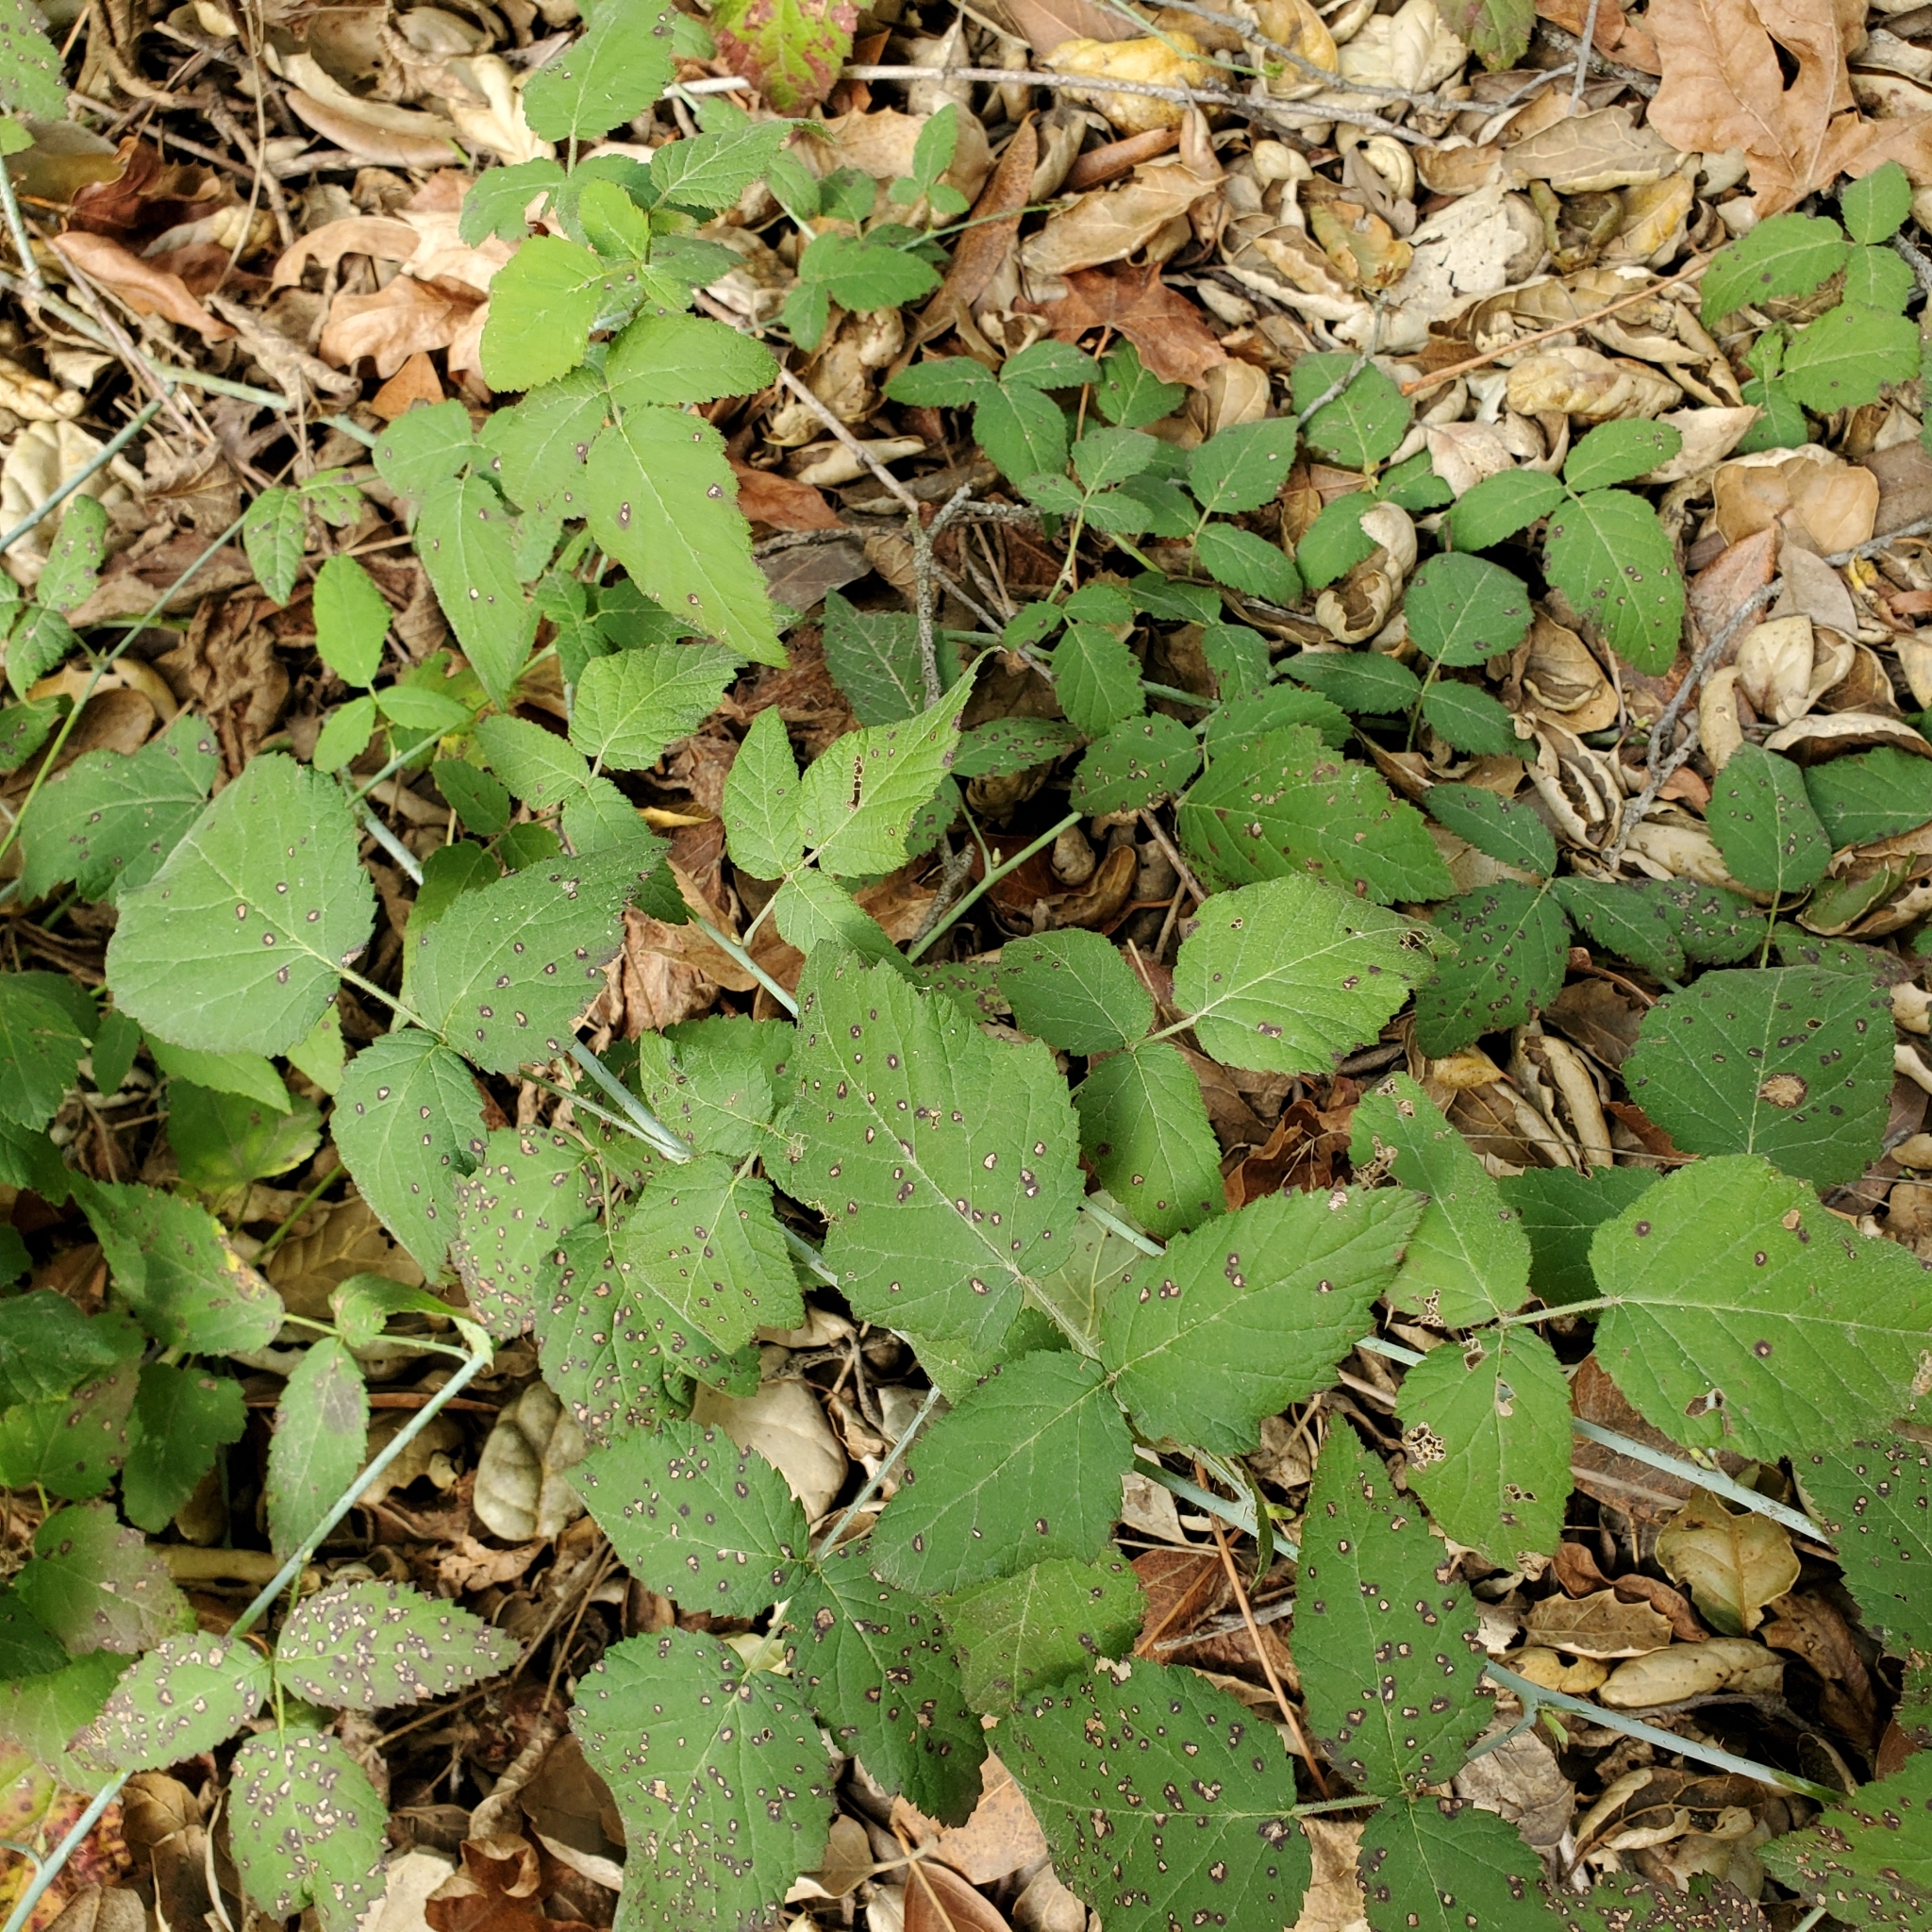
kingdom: Plantae
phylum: Tracheophyta
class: Magnoliopsida
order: Rosales
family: Rosaceae
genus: Rubus
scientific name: Rubus ursinus
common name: Pacific blackberry
